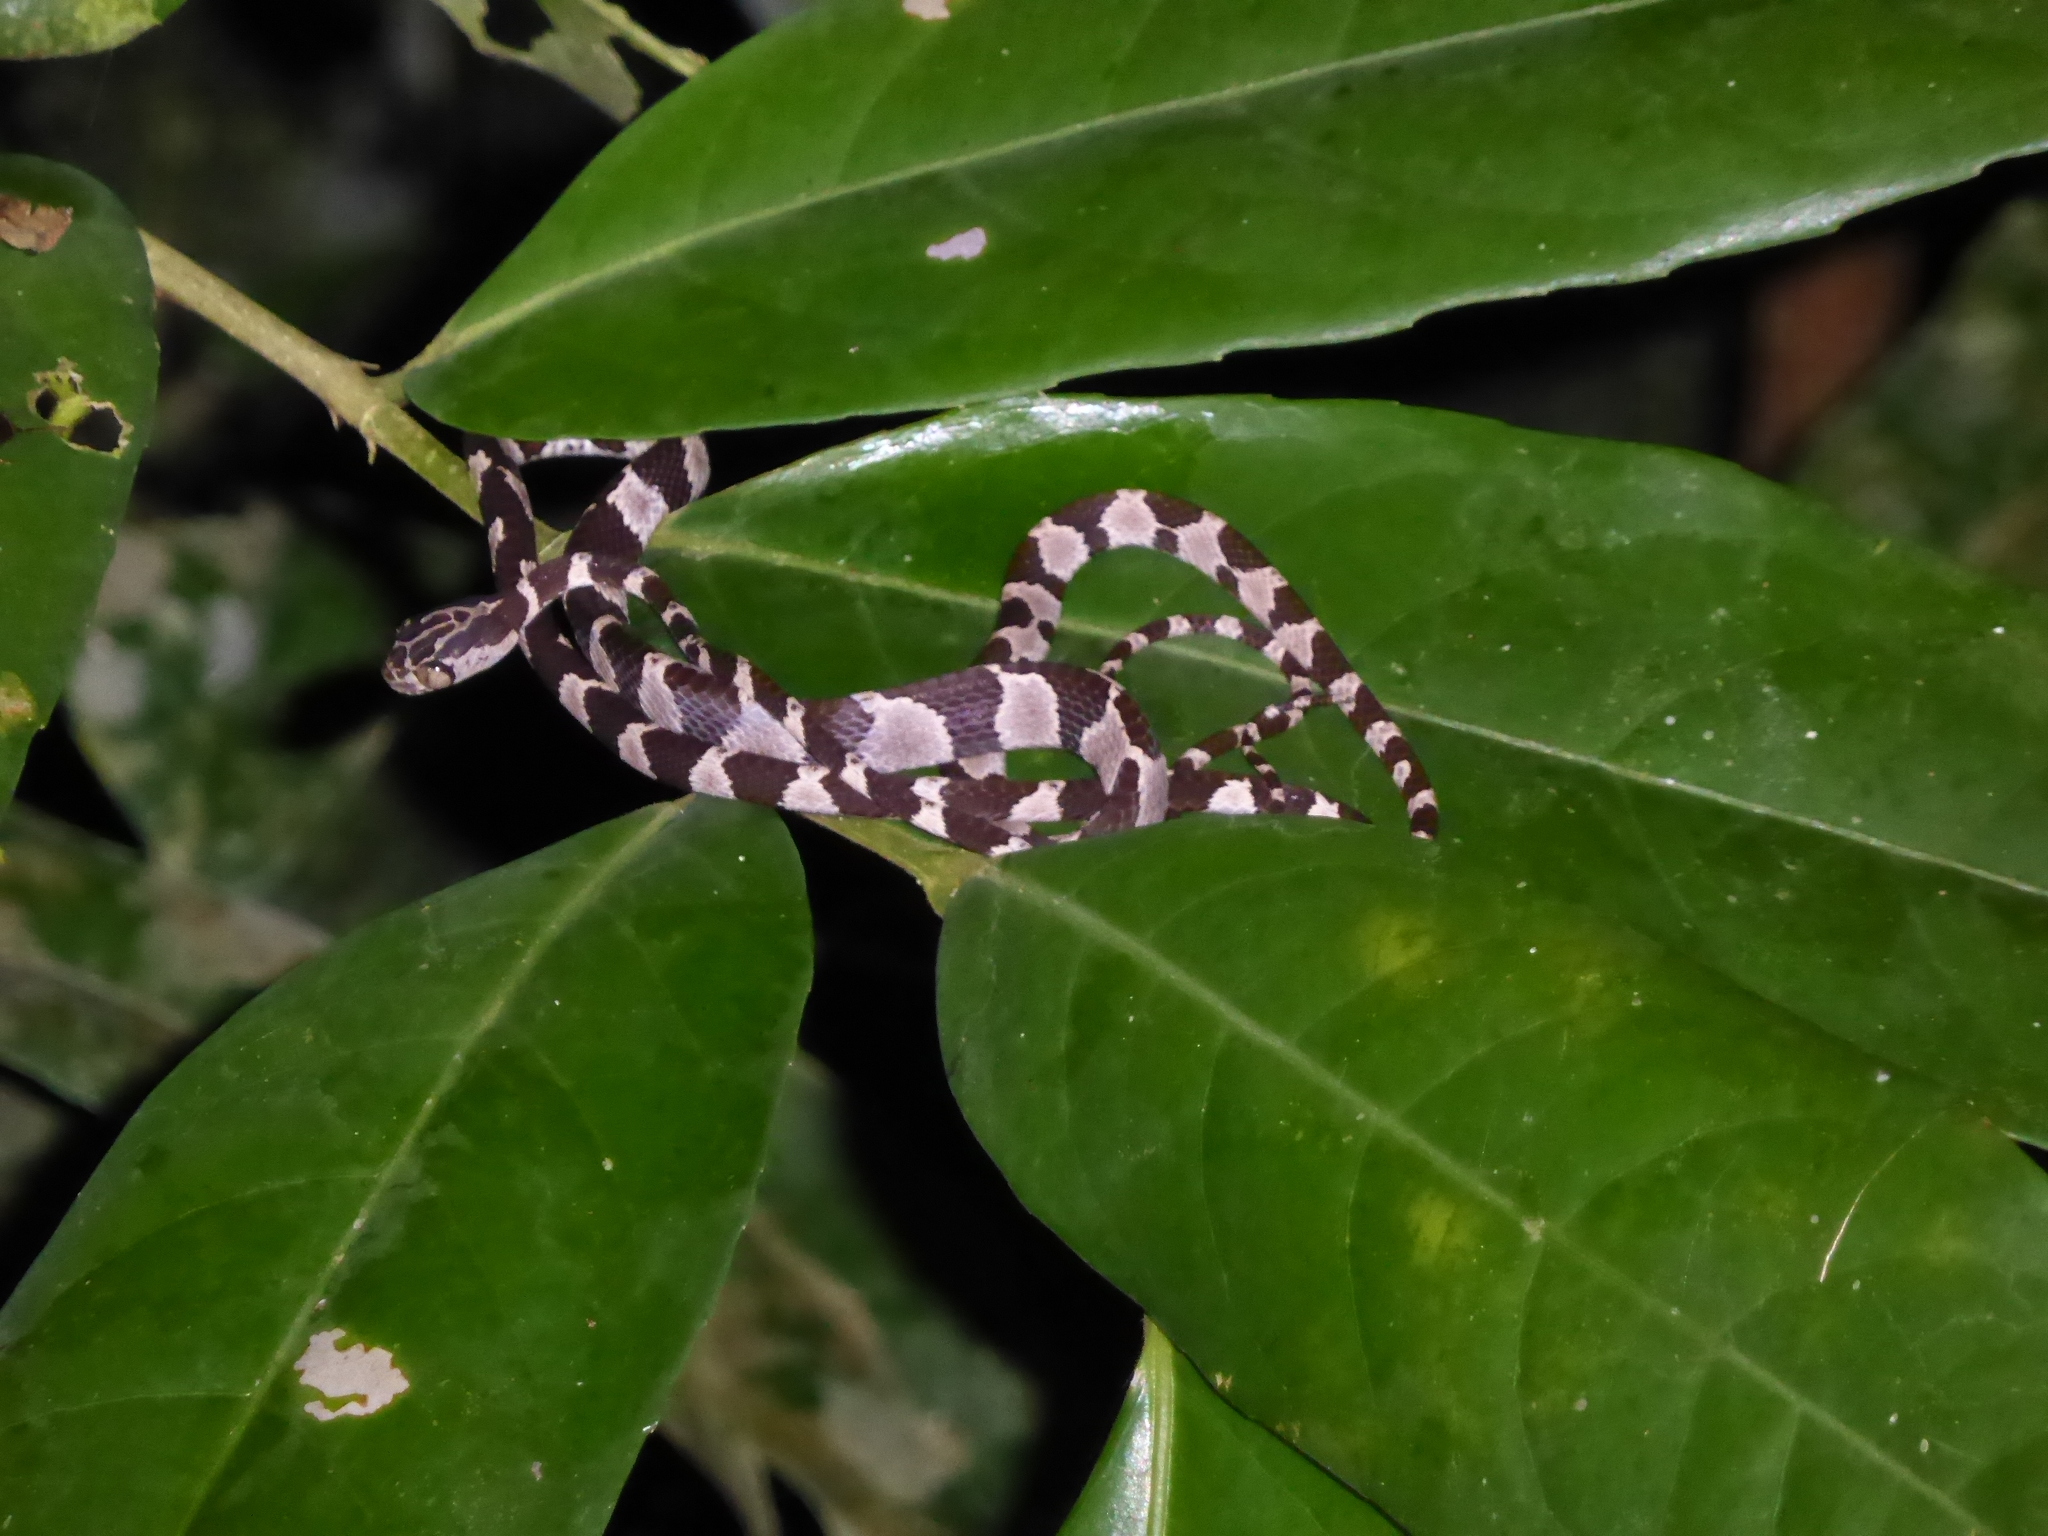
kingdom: Animalia
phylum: Chordata
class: Squamata
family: Colubridae
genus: Imantodes
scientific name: Imantodes cenchoa
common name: Blunthead tree snake
